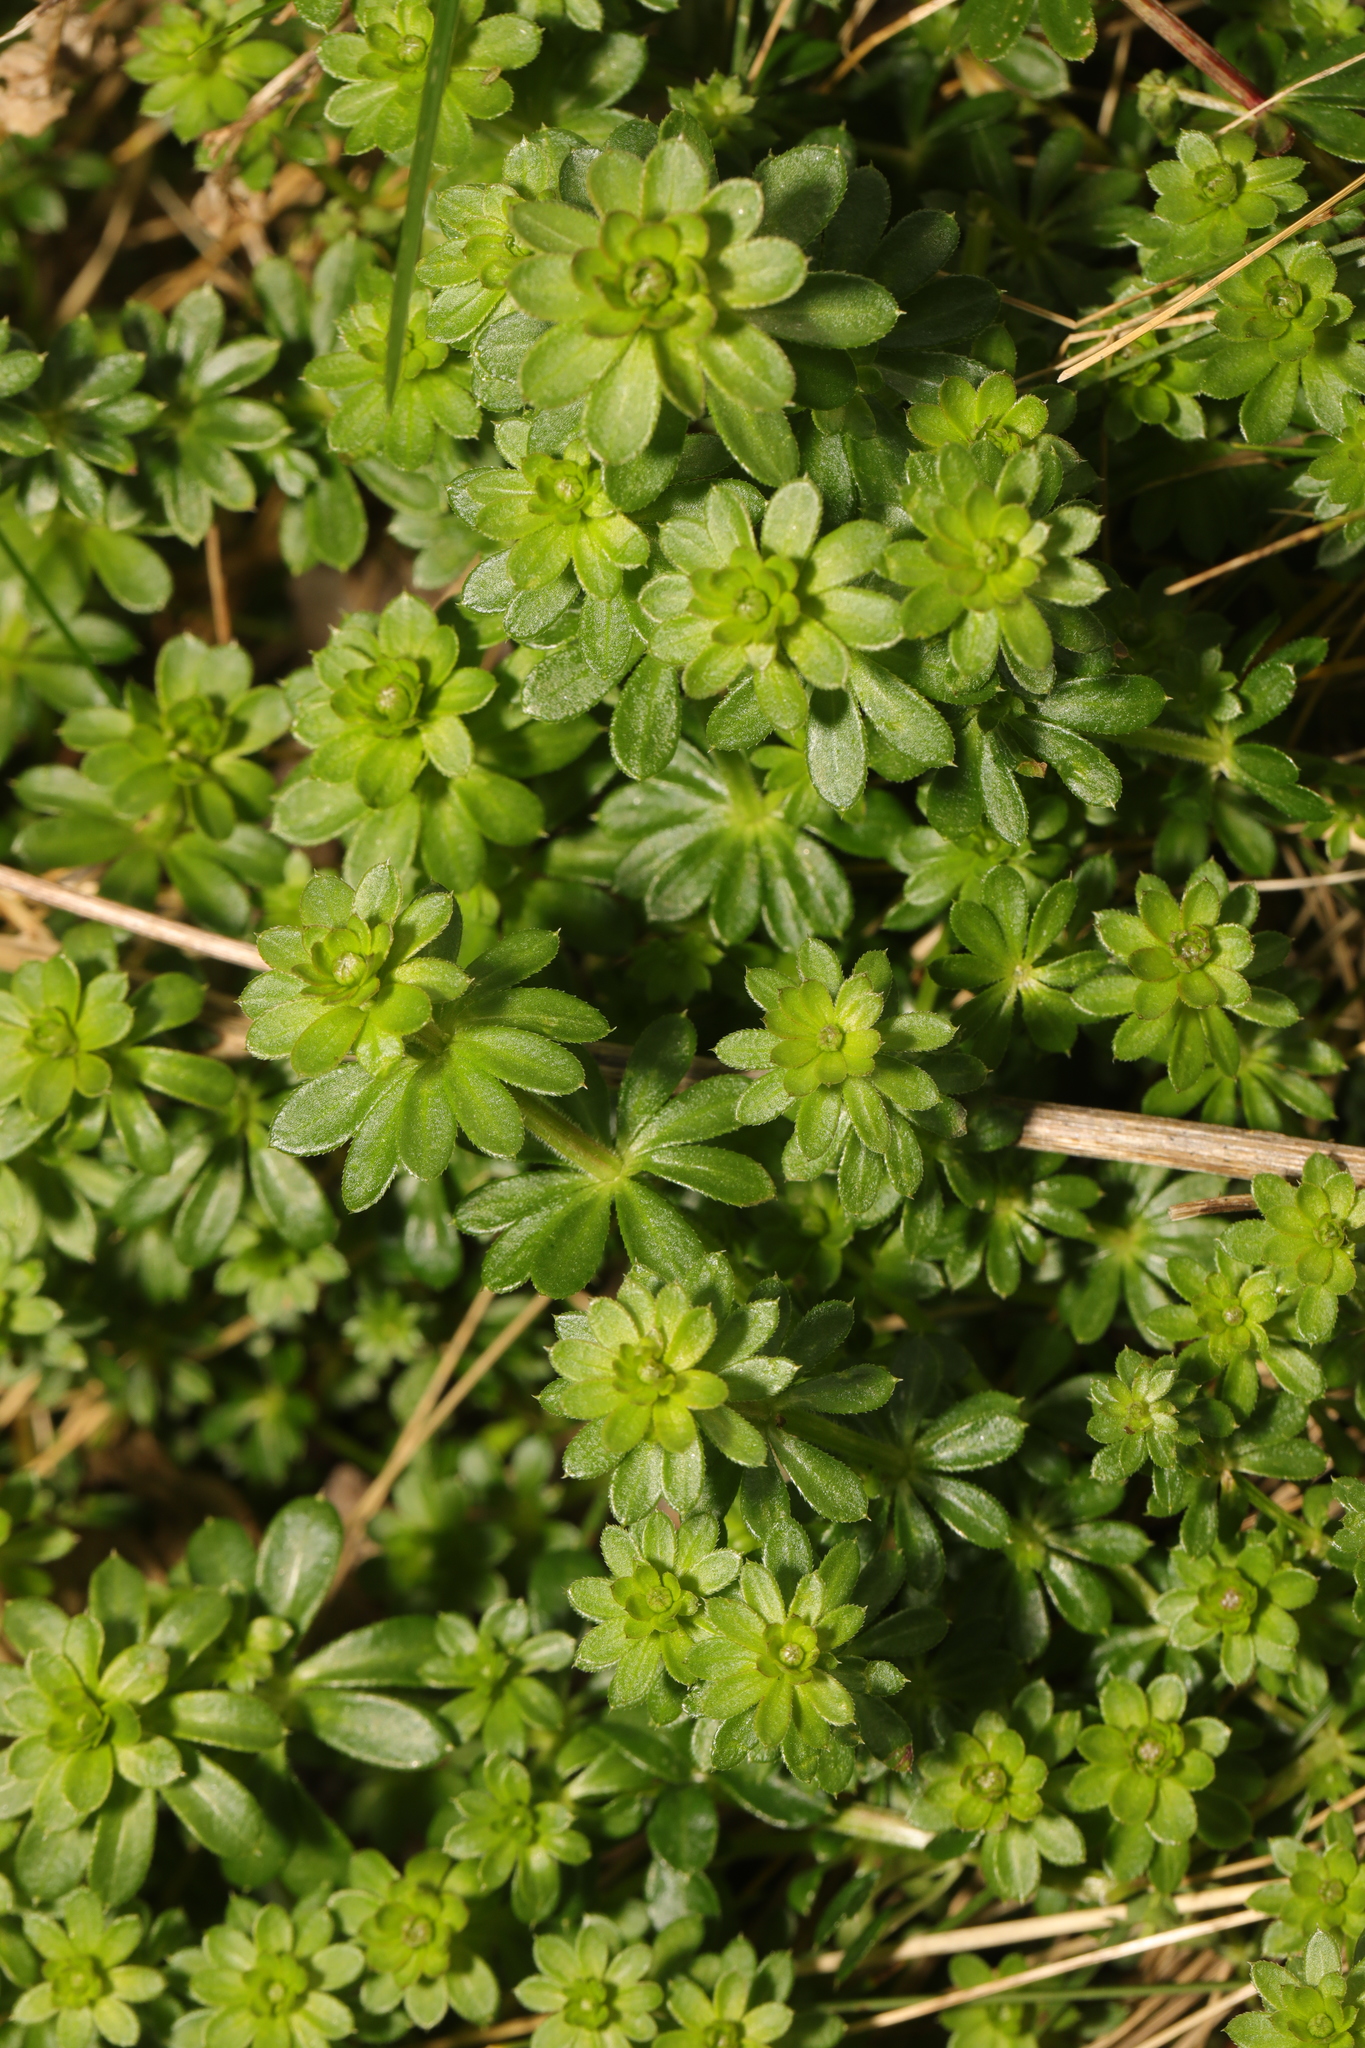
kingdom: Plantae
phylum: Tracheophyta
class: Magnoliopsida
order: Gentianales
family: Rubiaceae
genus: Galium
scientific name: Galium aparine
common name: Cleavers
